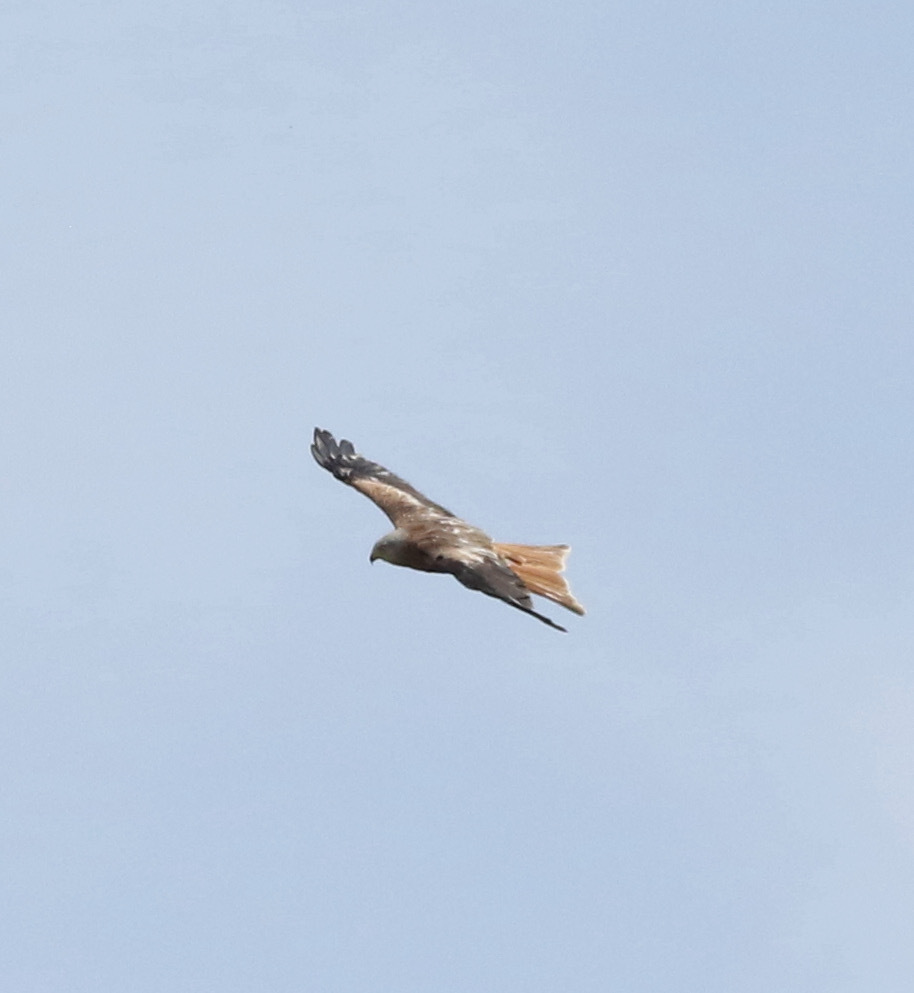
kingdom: Animalia
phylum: Chordata
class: Aves
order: Accipitriformes
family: Accipitridae
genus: Milvus
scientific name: Milvus milvus
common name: Red kite
